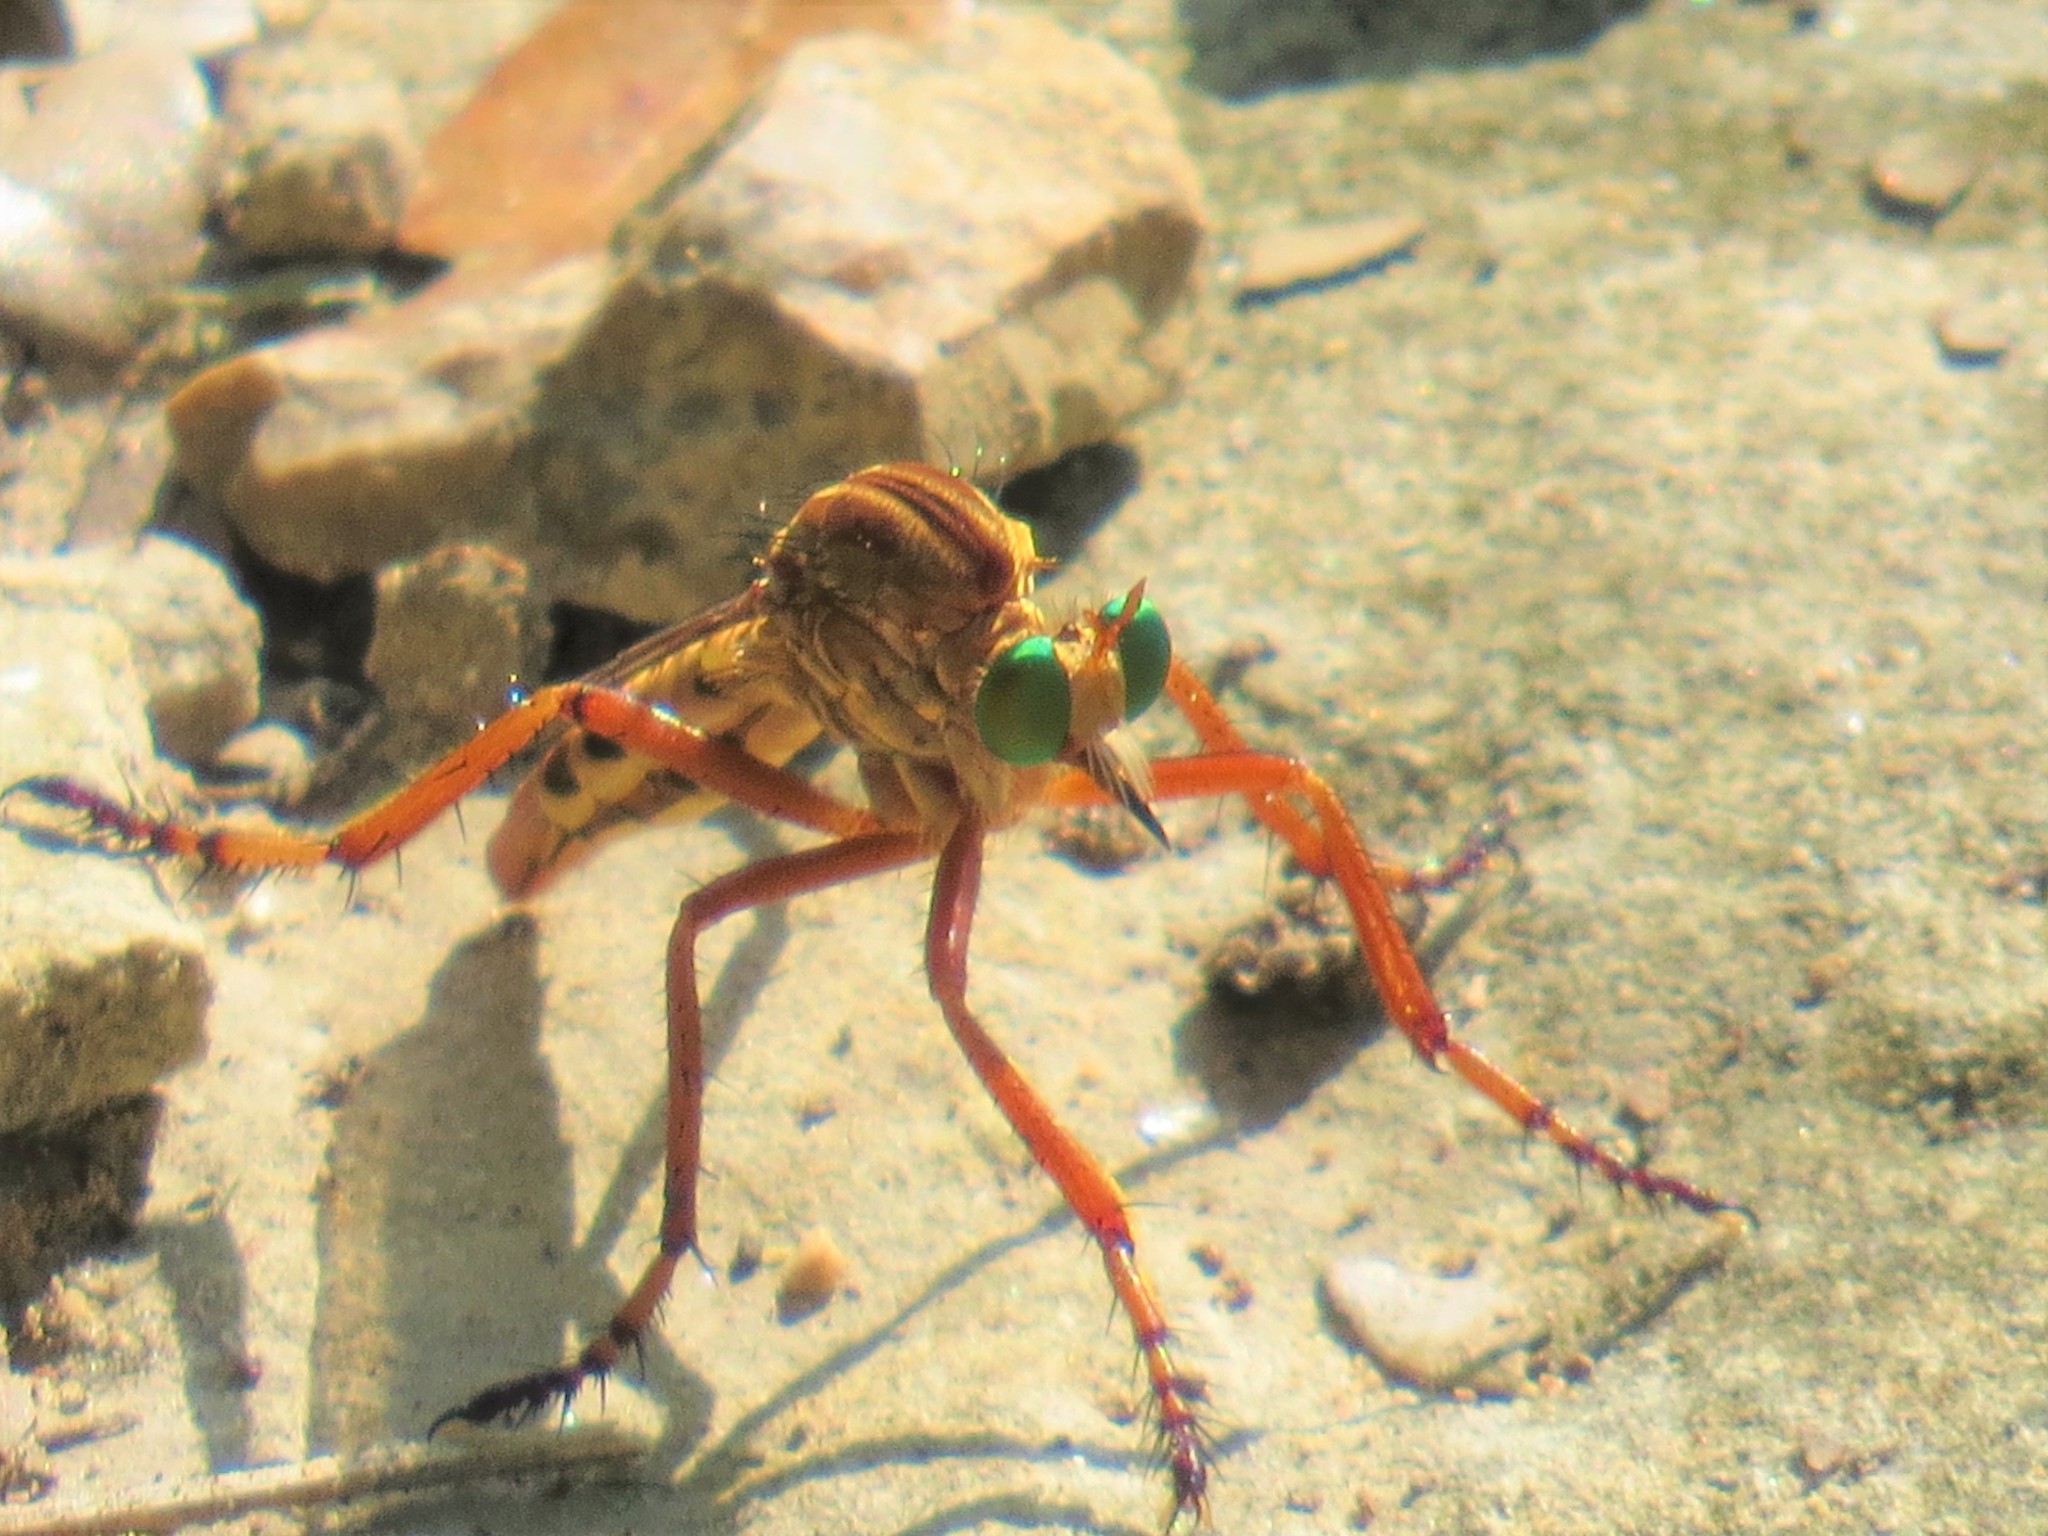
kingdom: Animalia
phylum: Arthropoda
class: Insecta
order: Diptera
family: Asilidae
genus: Diogmites
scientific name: Diogmites angustipennis
